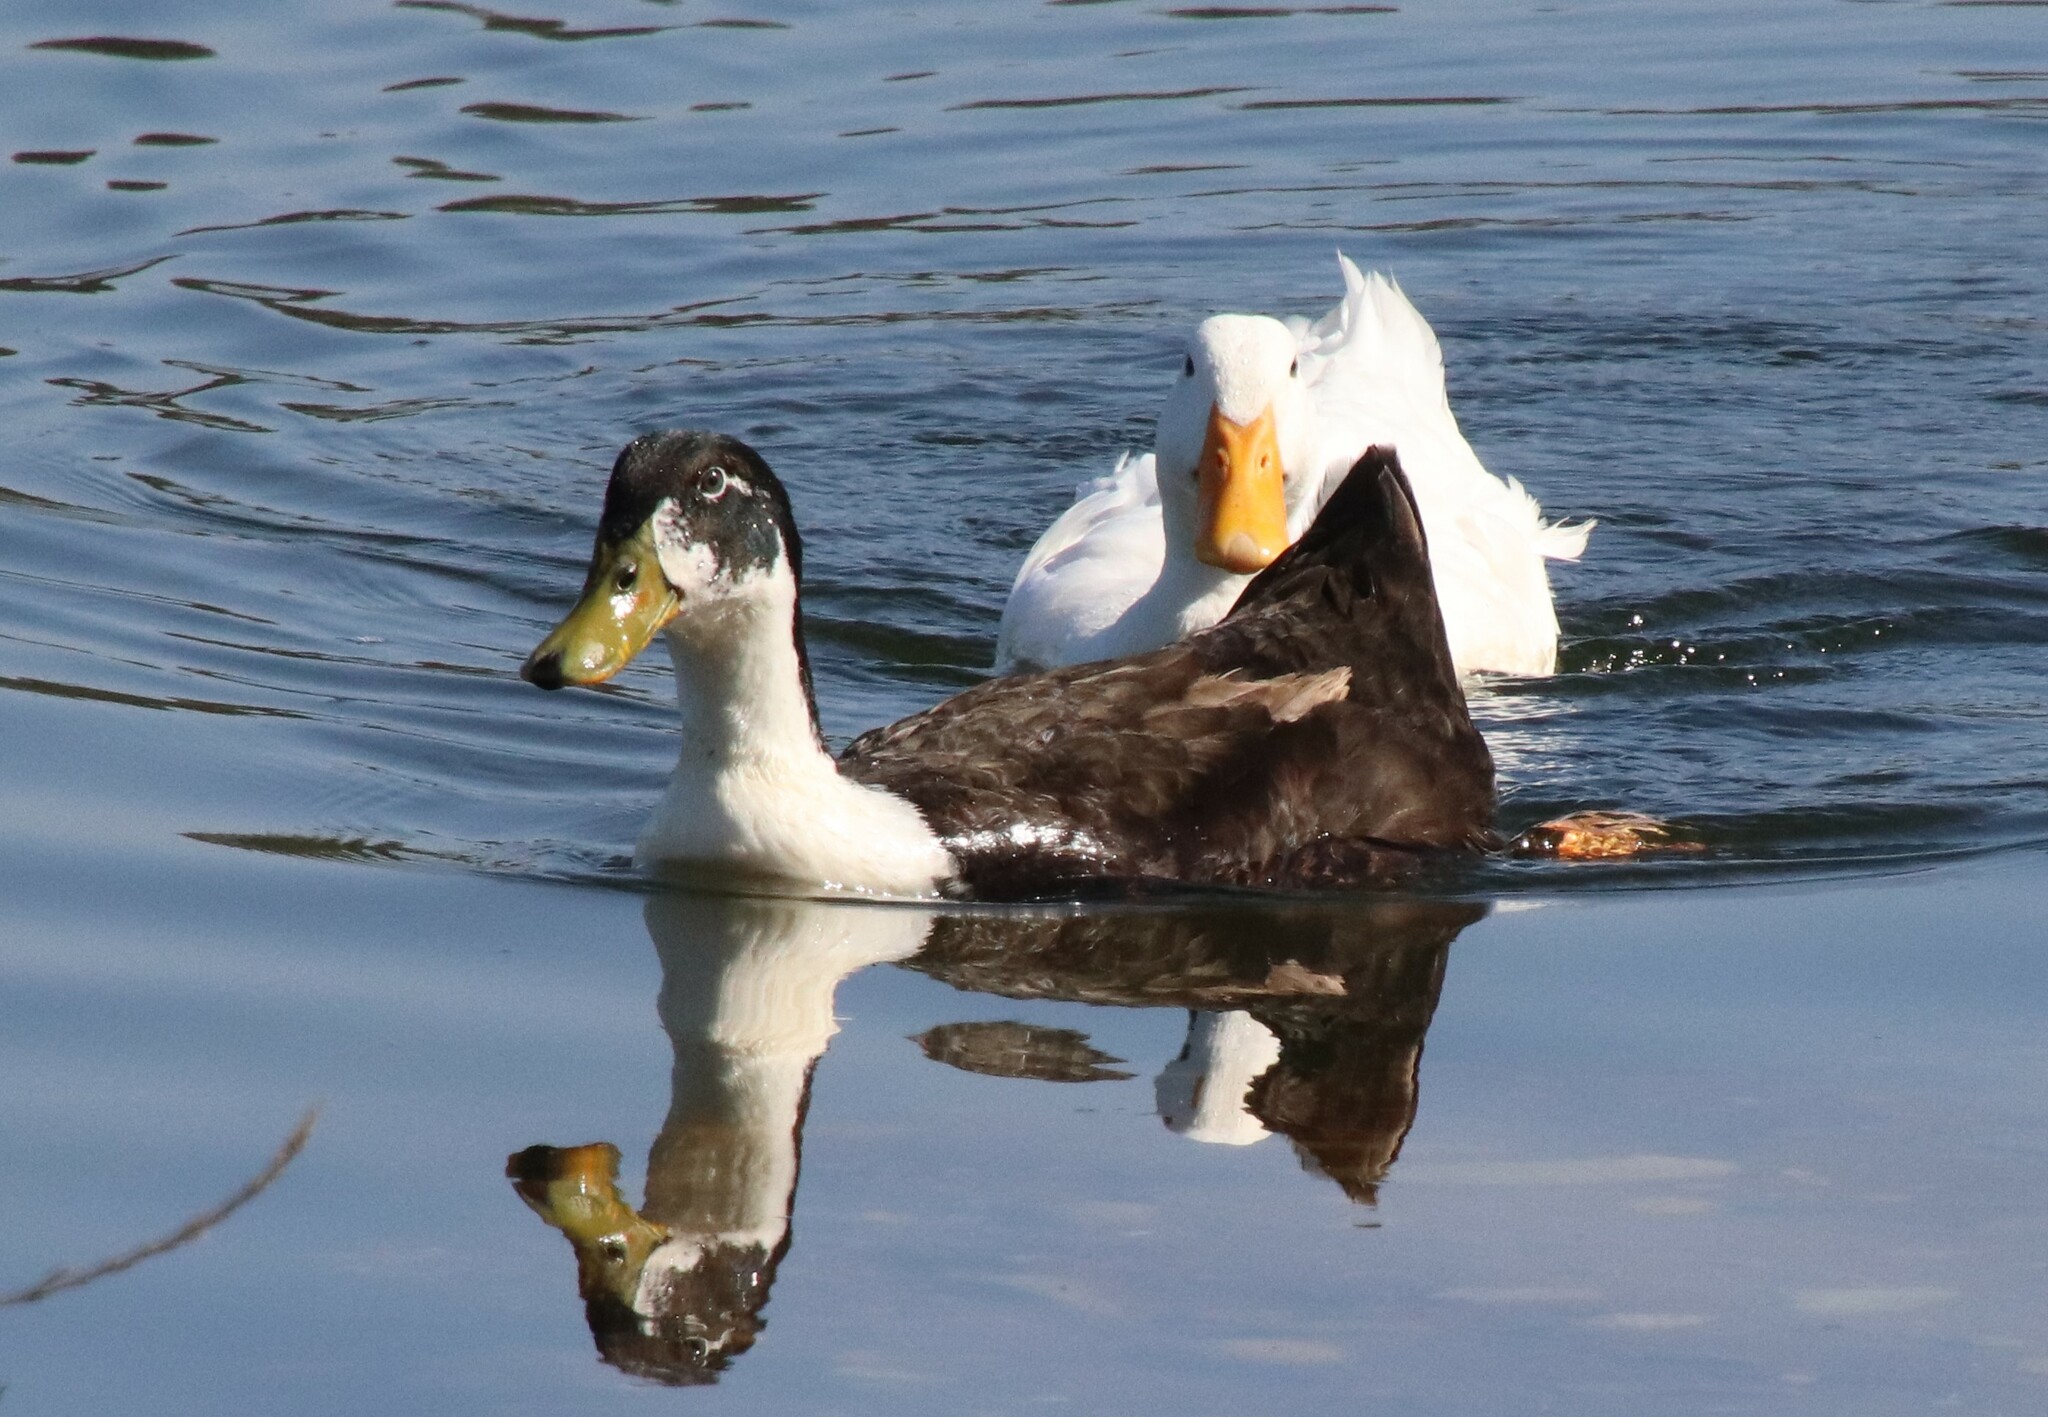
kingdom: Animalia
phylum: Chordata
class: Aves
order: Anseriformes
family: Anatidae
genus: Anas
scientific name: Anas platyrhynchos
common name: Mallard
